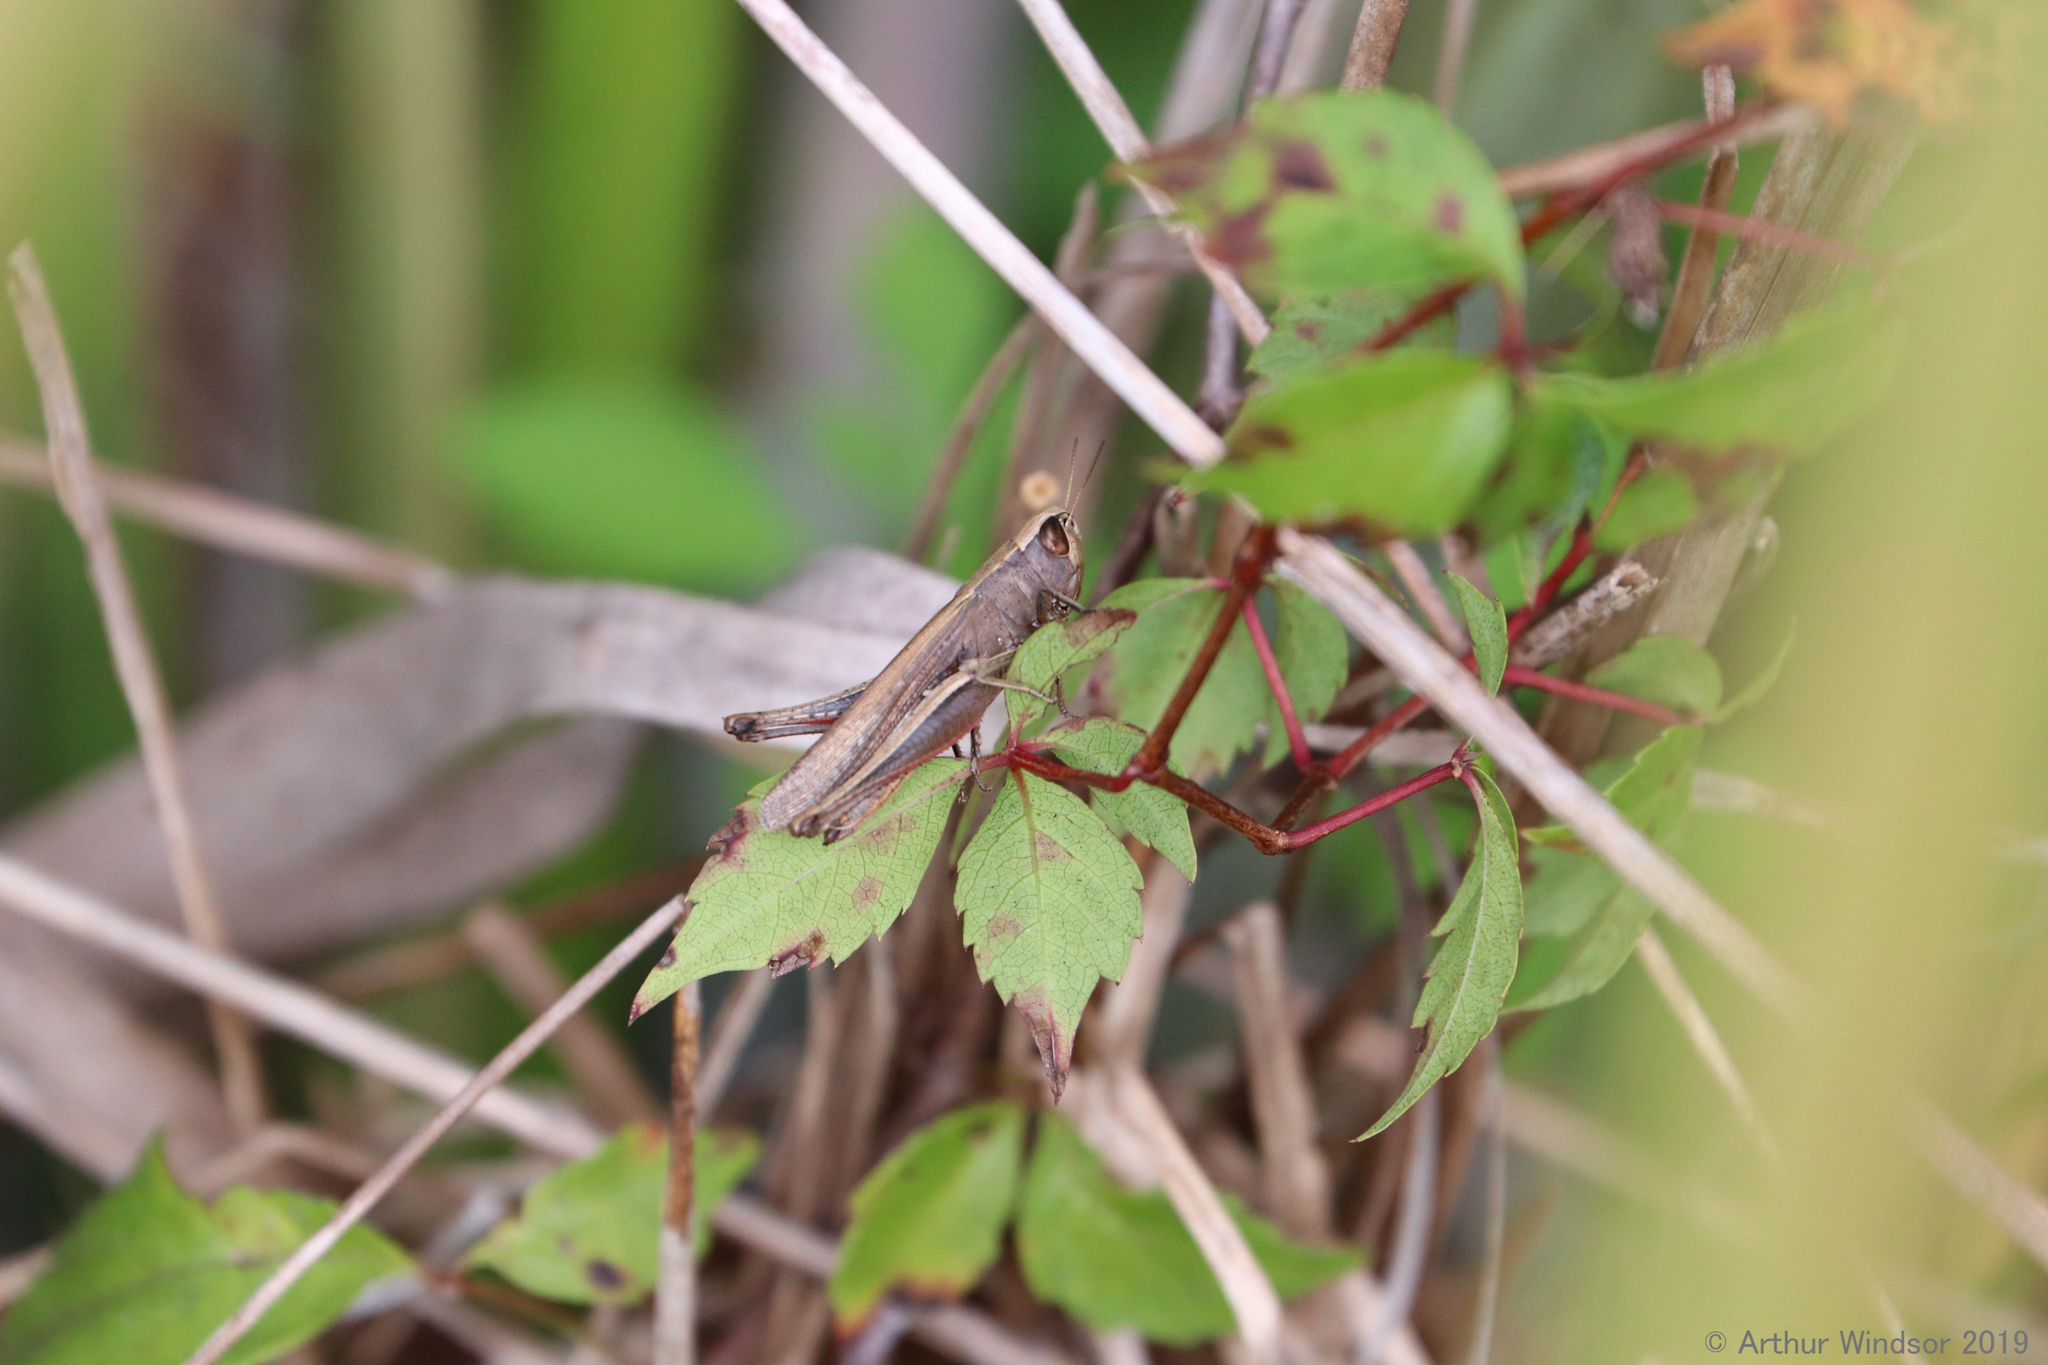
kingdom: Animalia
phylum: Arthropoda
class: Insecta
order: Orthoptera
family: Acrididae
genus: Amblytropidia
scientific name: Amblytropidia mysteca
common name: Brown winter grasshopper
